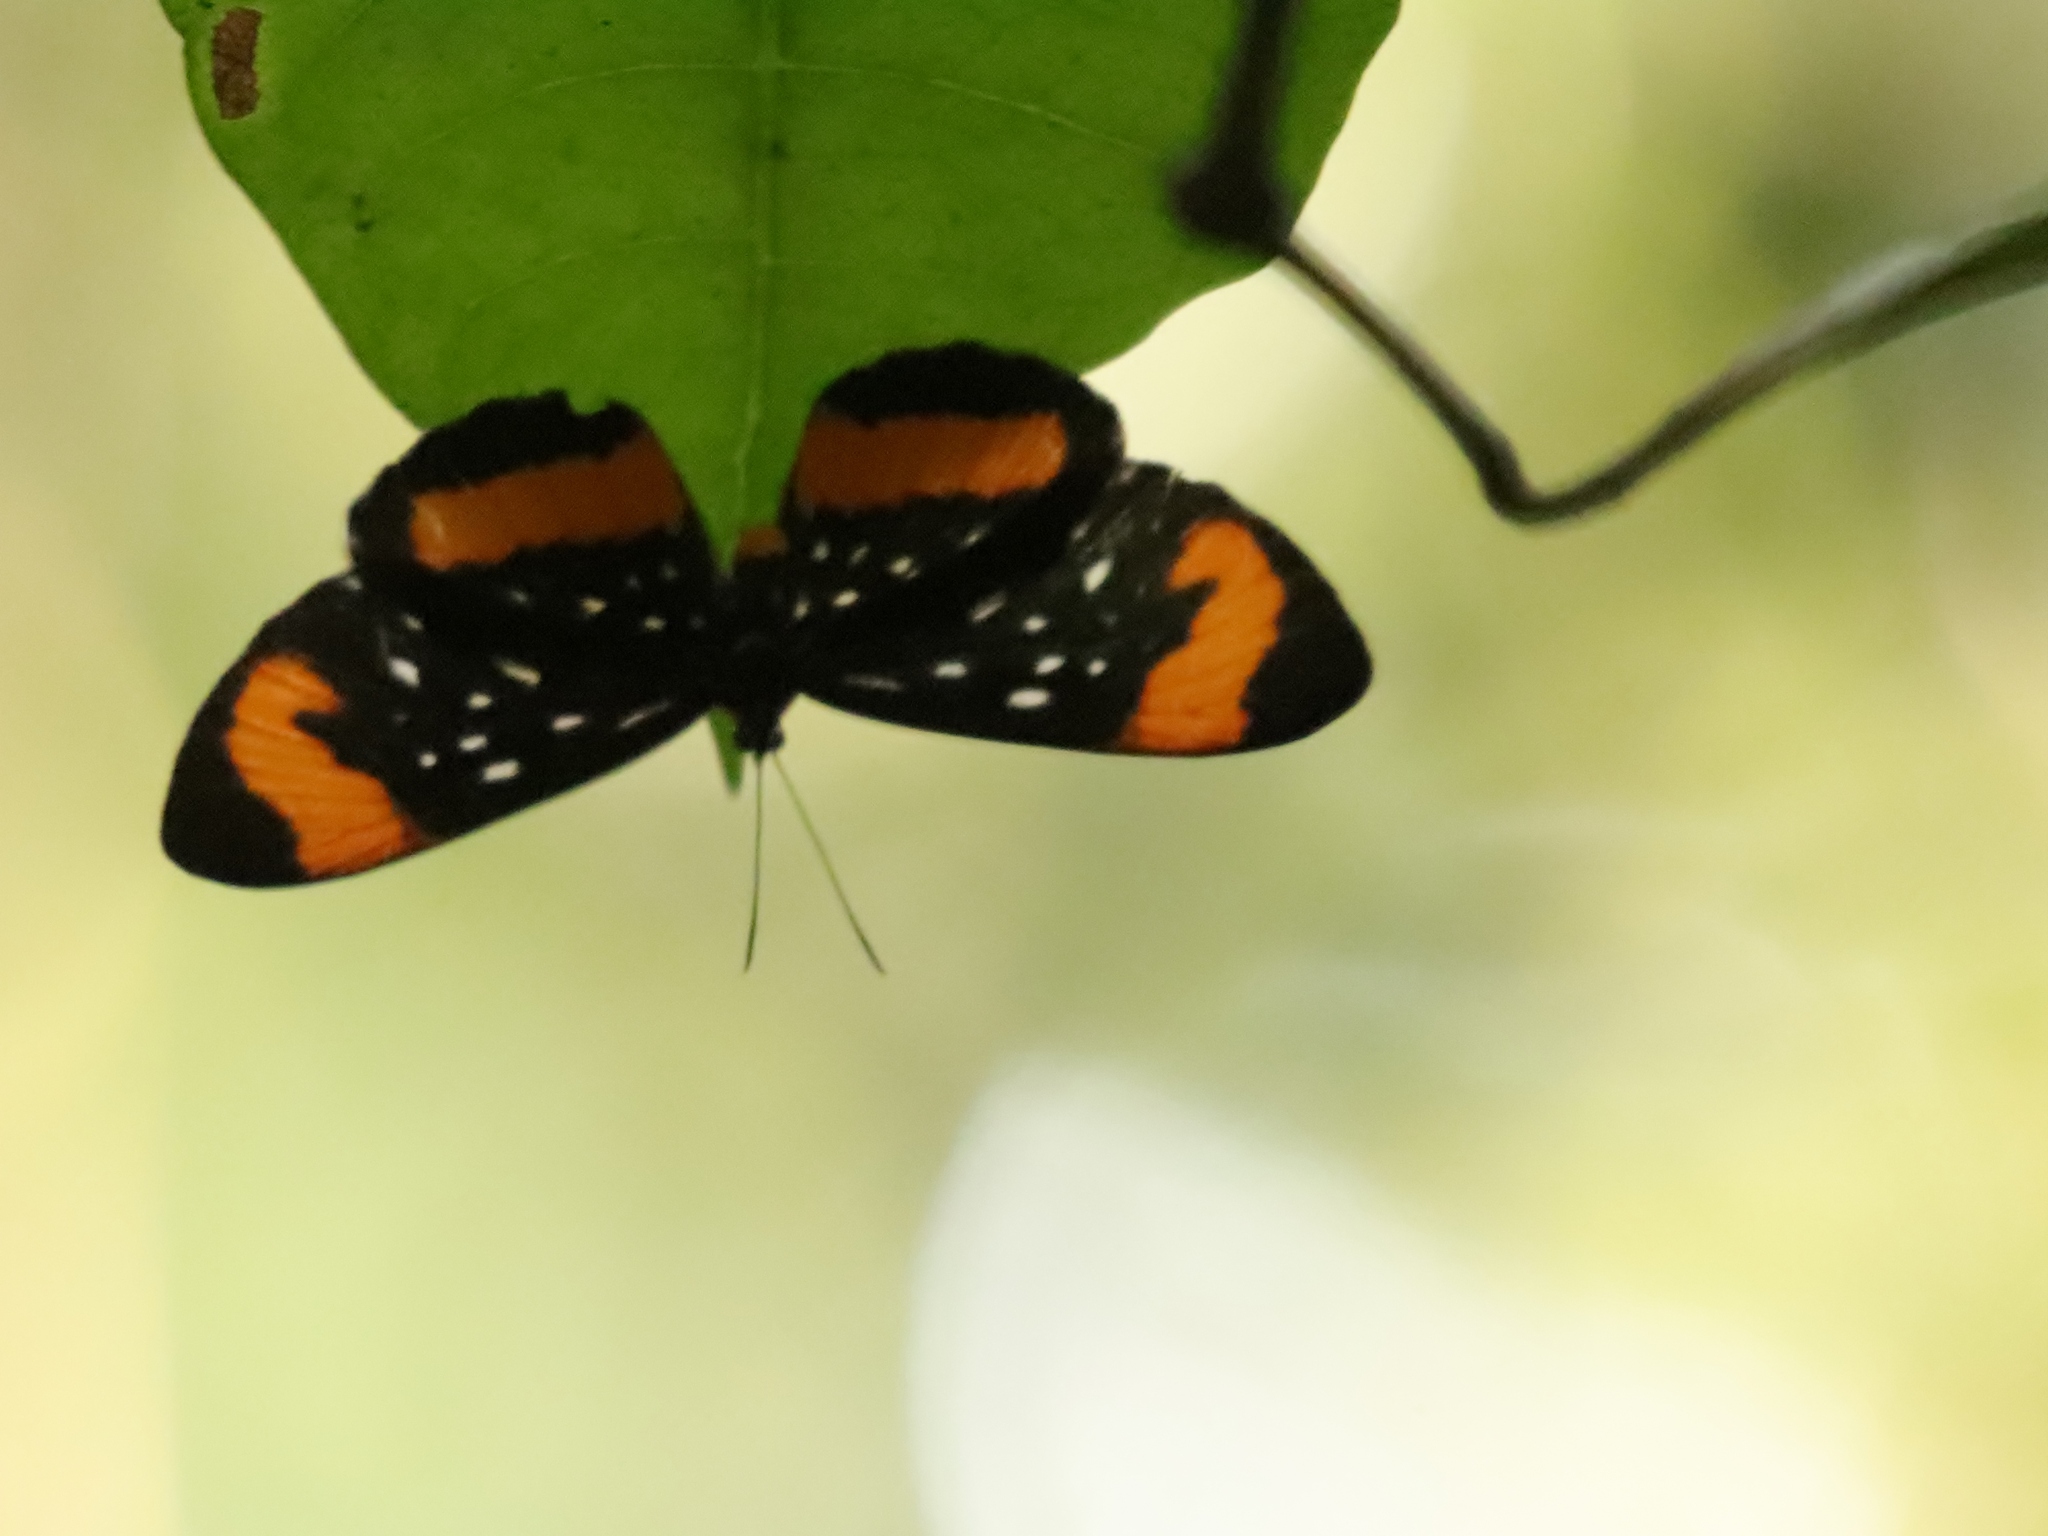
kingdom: Animalia
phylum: Arthropoda
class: Insecta
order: Lepidoptera
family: Riodinidae
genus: Stalachtis
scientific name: Stalachtis euterpe
